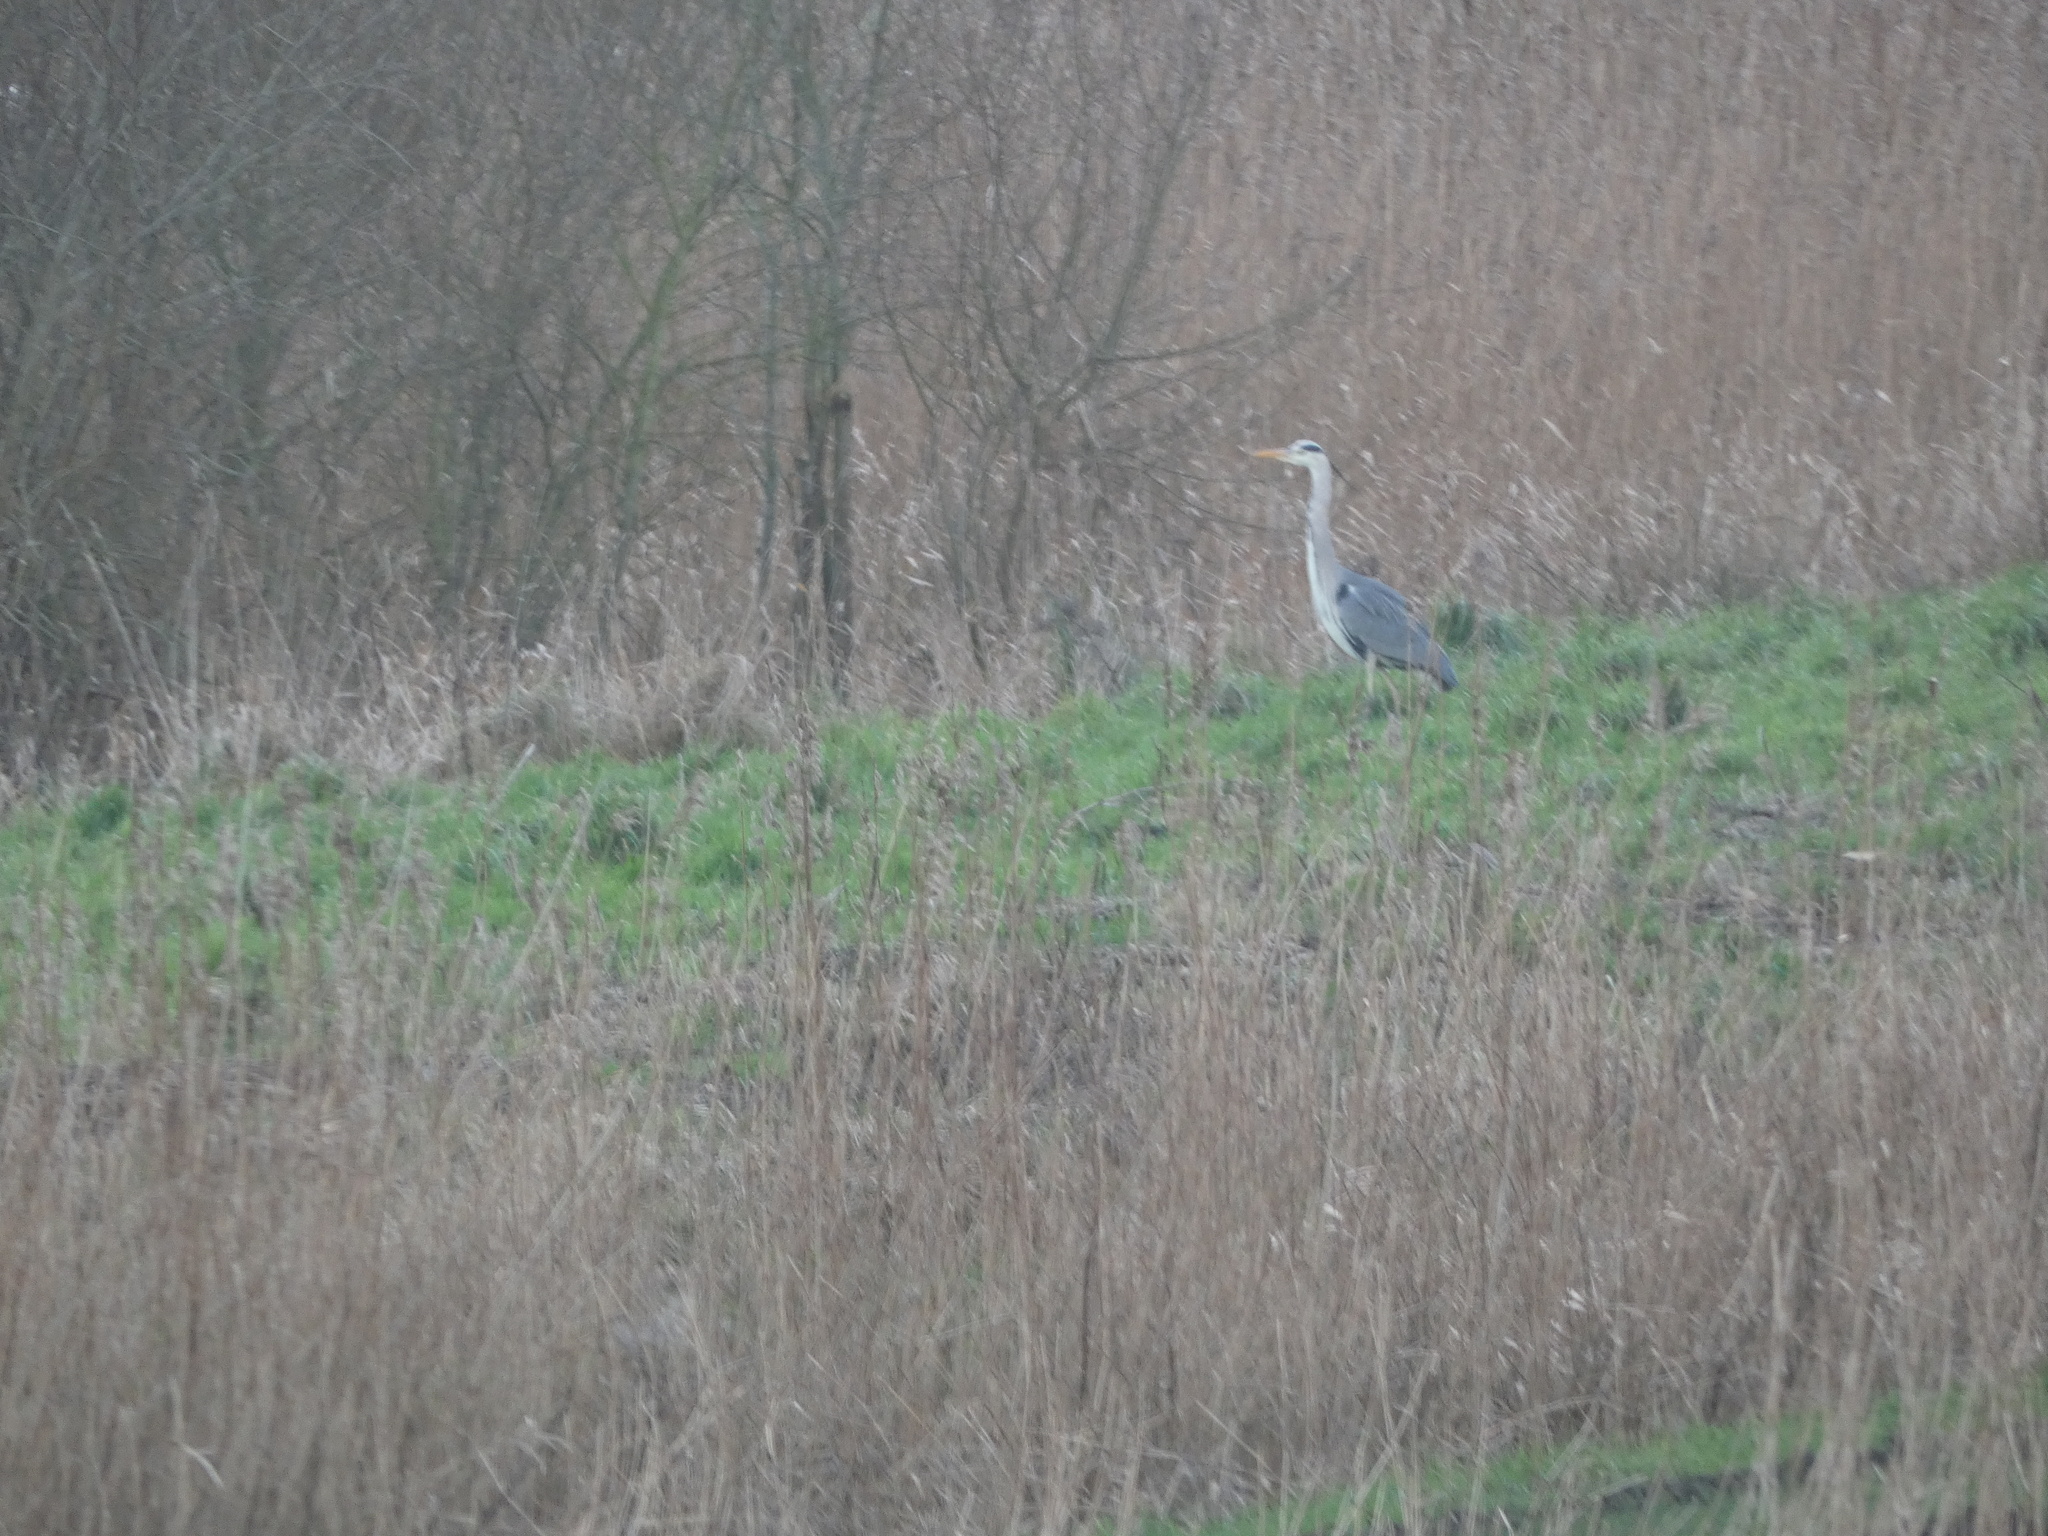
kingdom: Animalia
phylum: Chordata
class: Aves
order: Pelecaniformes
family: Ardeidae
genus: Ardea
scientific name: Ardea cinerea
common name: Grey heron
